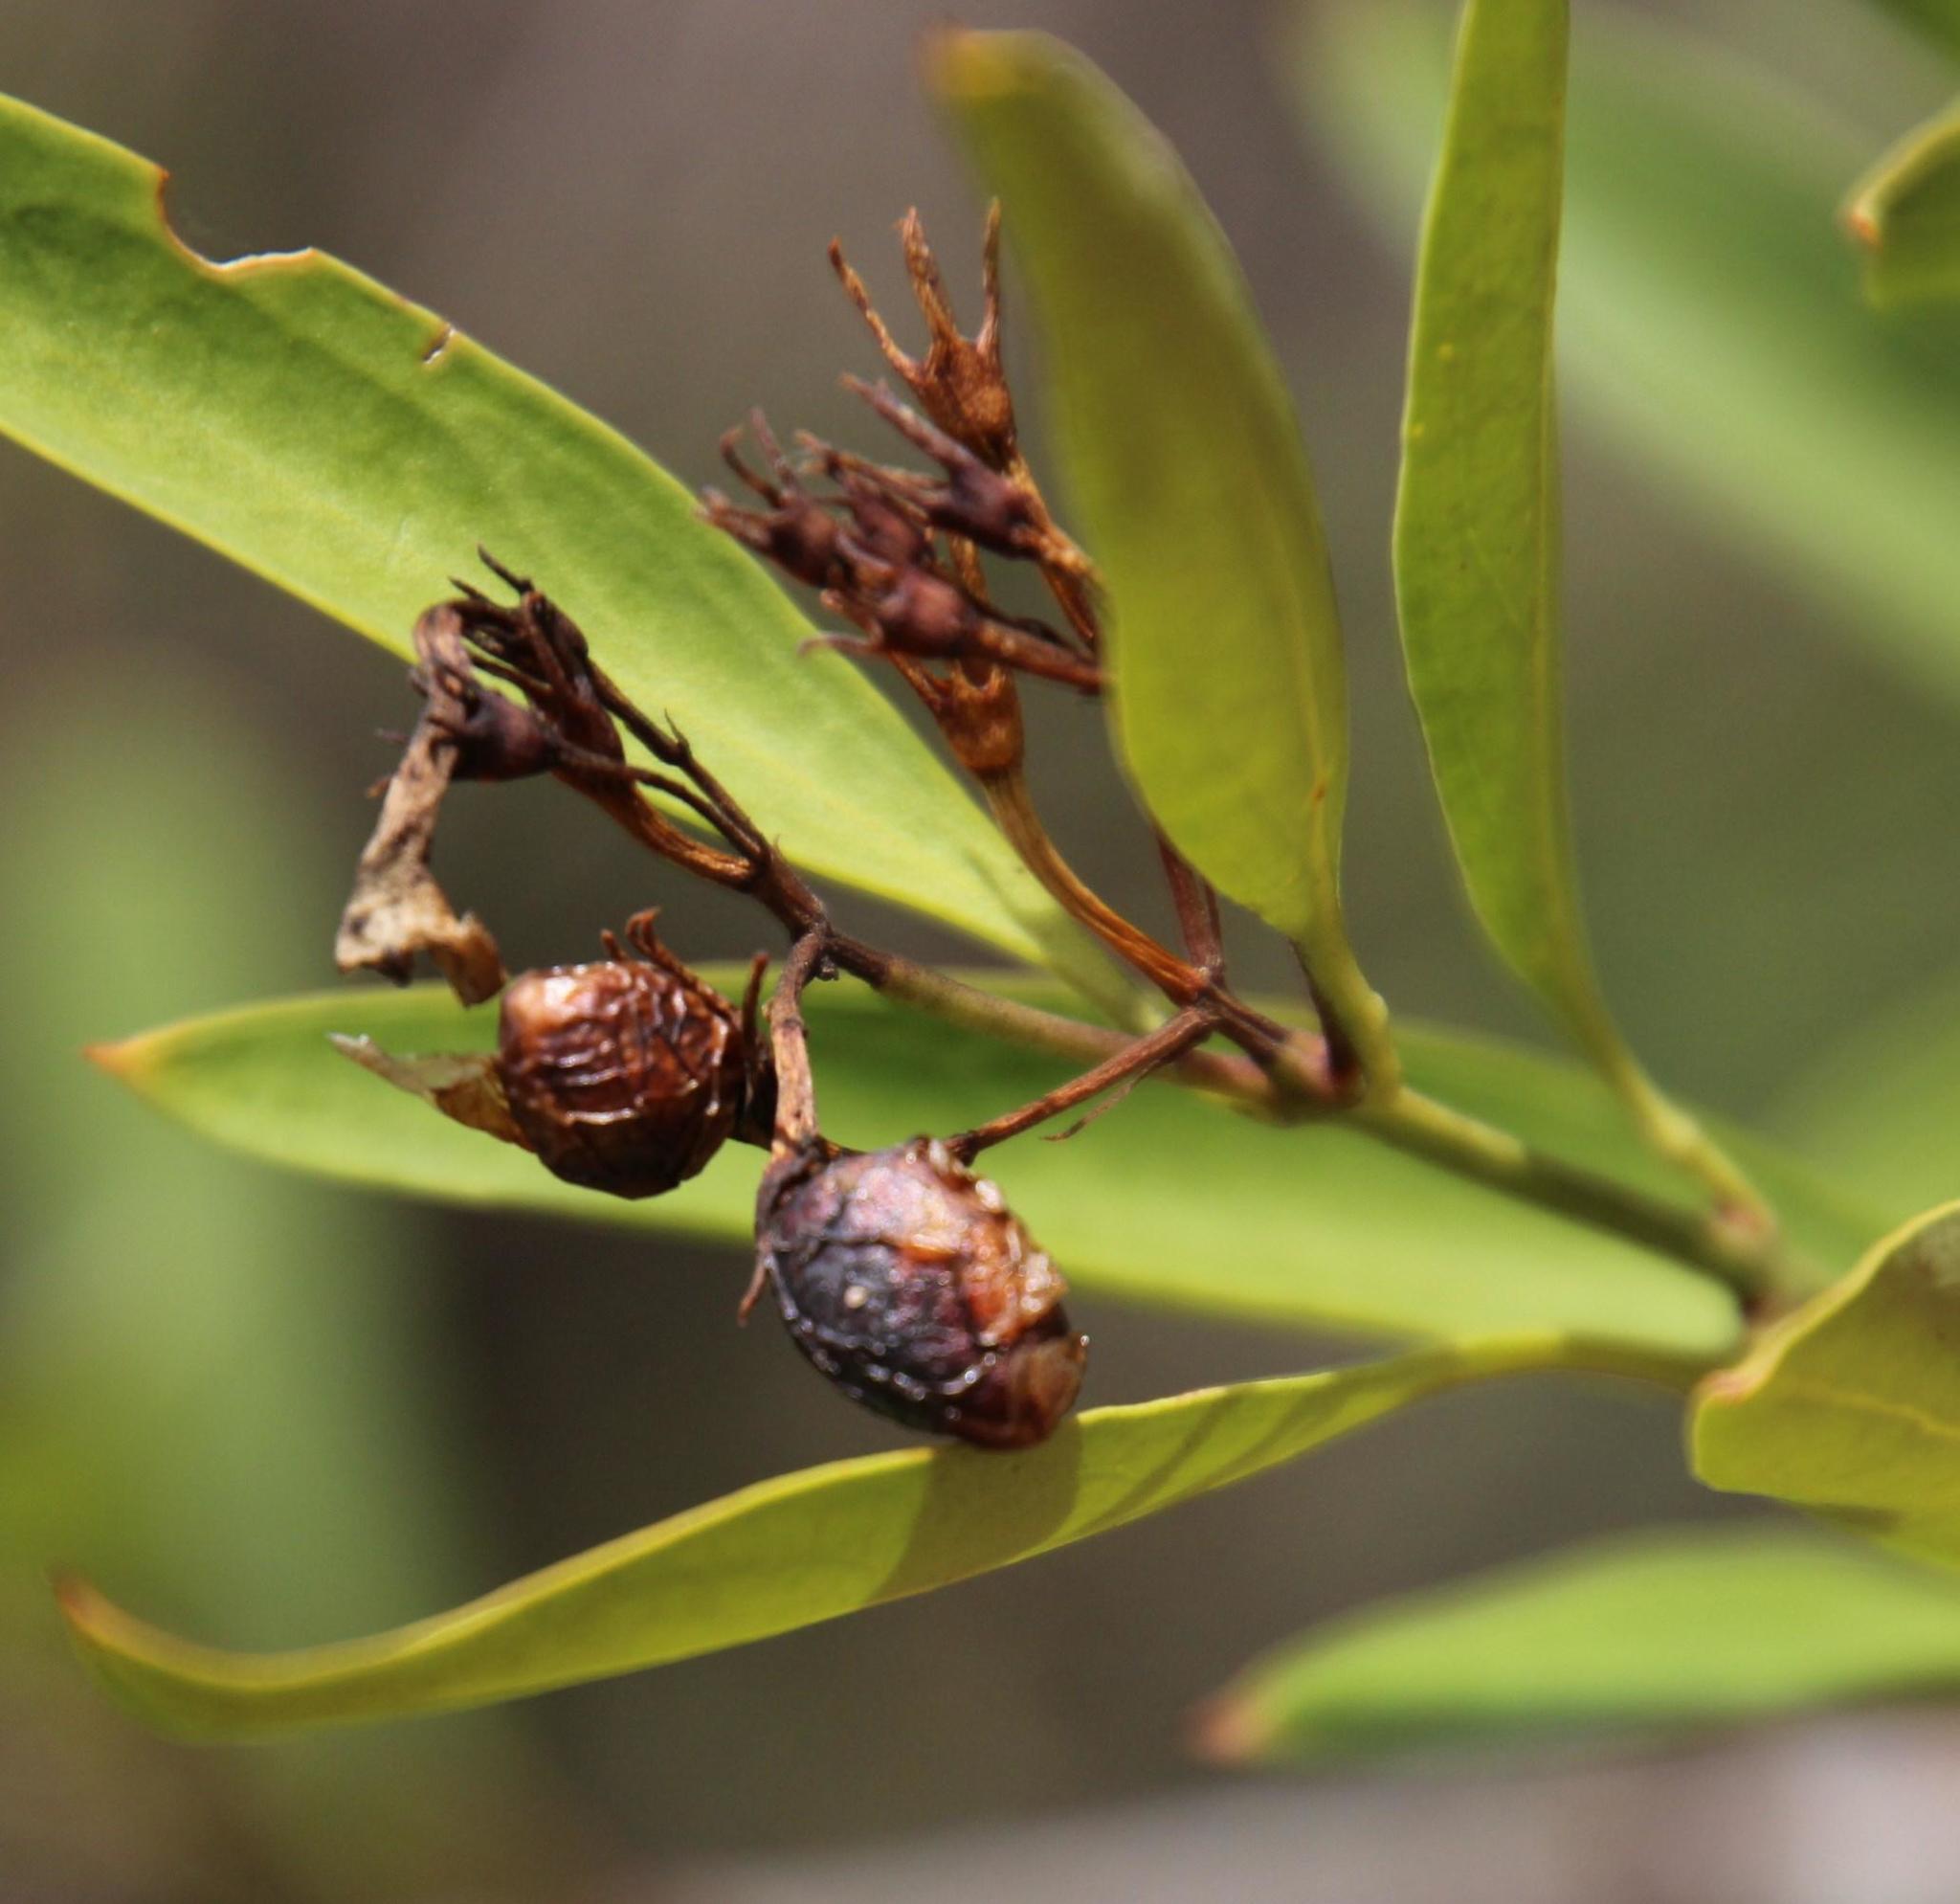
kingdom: Plantae
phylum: Tracheophyta
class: Magnoliopsida
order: Lamiales
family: Oleaceae
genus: Jasminum
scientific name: Jasminum glaucum
